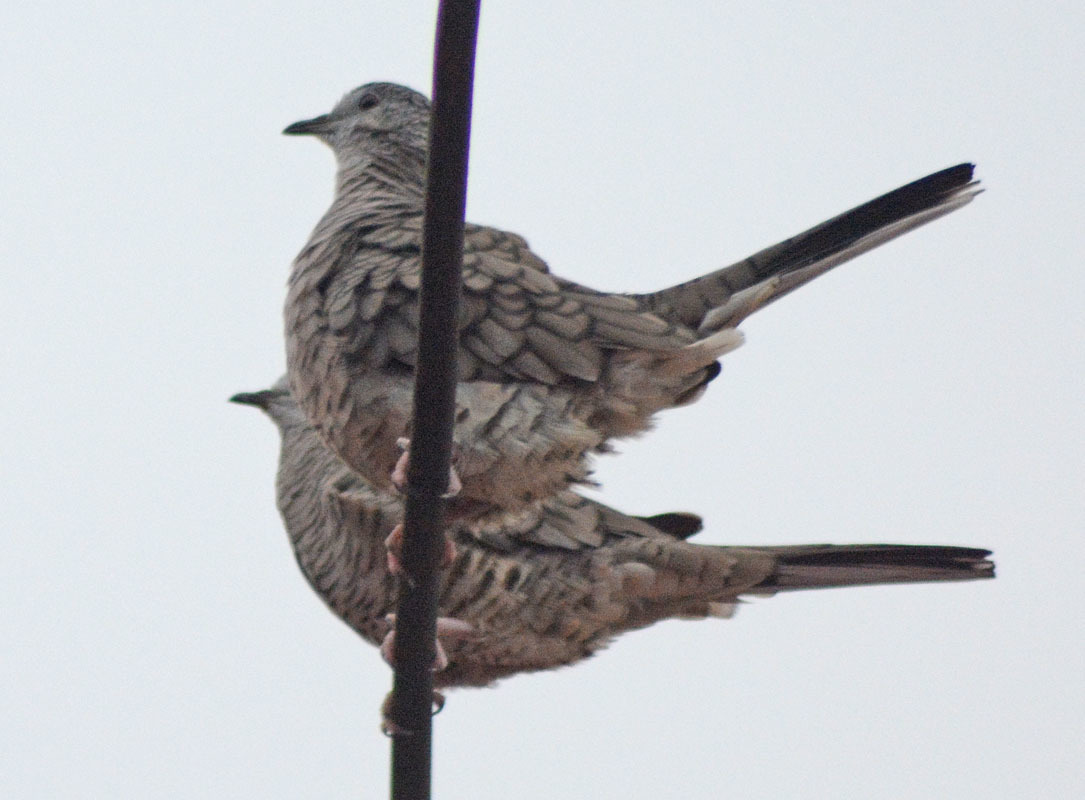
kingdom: Animalia
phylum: Chordata
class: Aves
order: Columbiformes
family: Columbidae
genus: Columbina
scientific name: Columbina inca
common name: Inca dove
